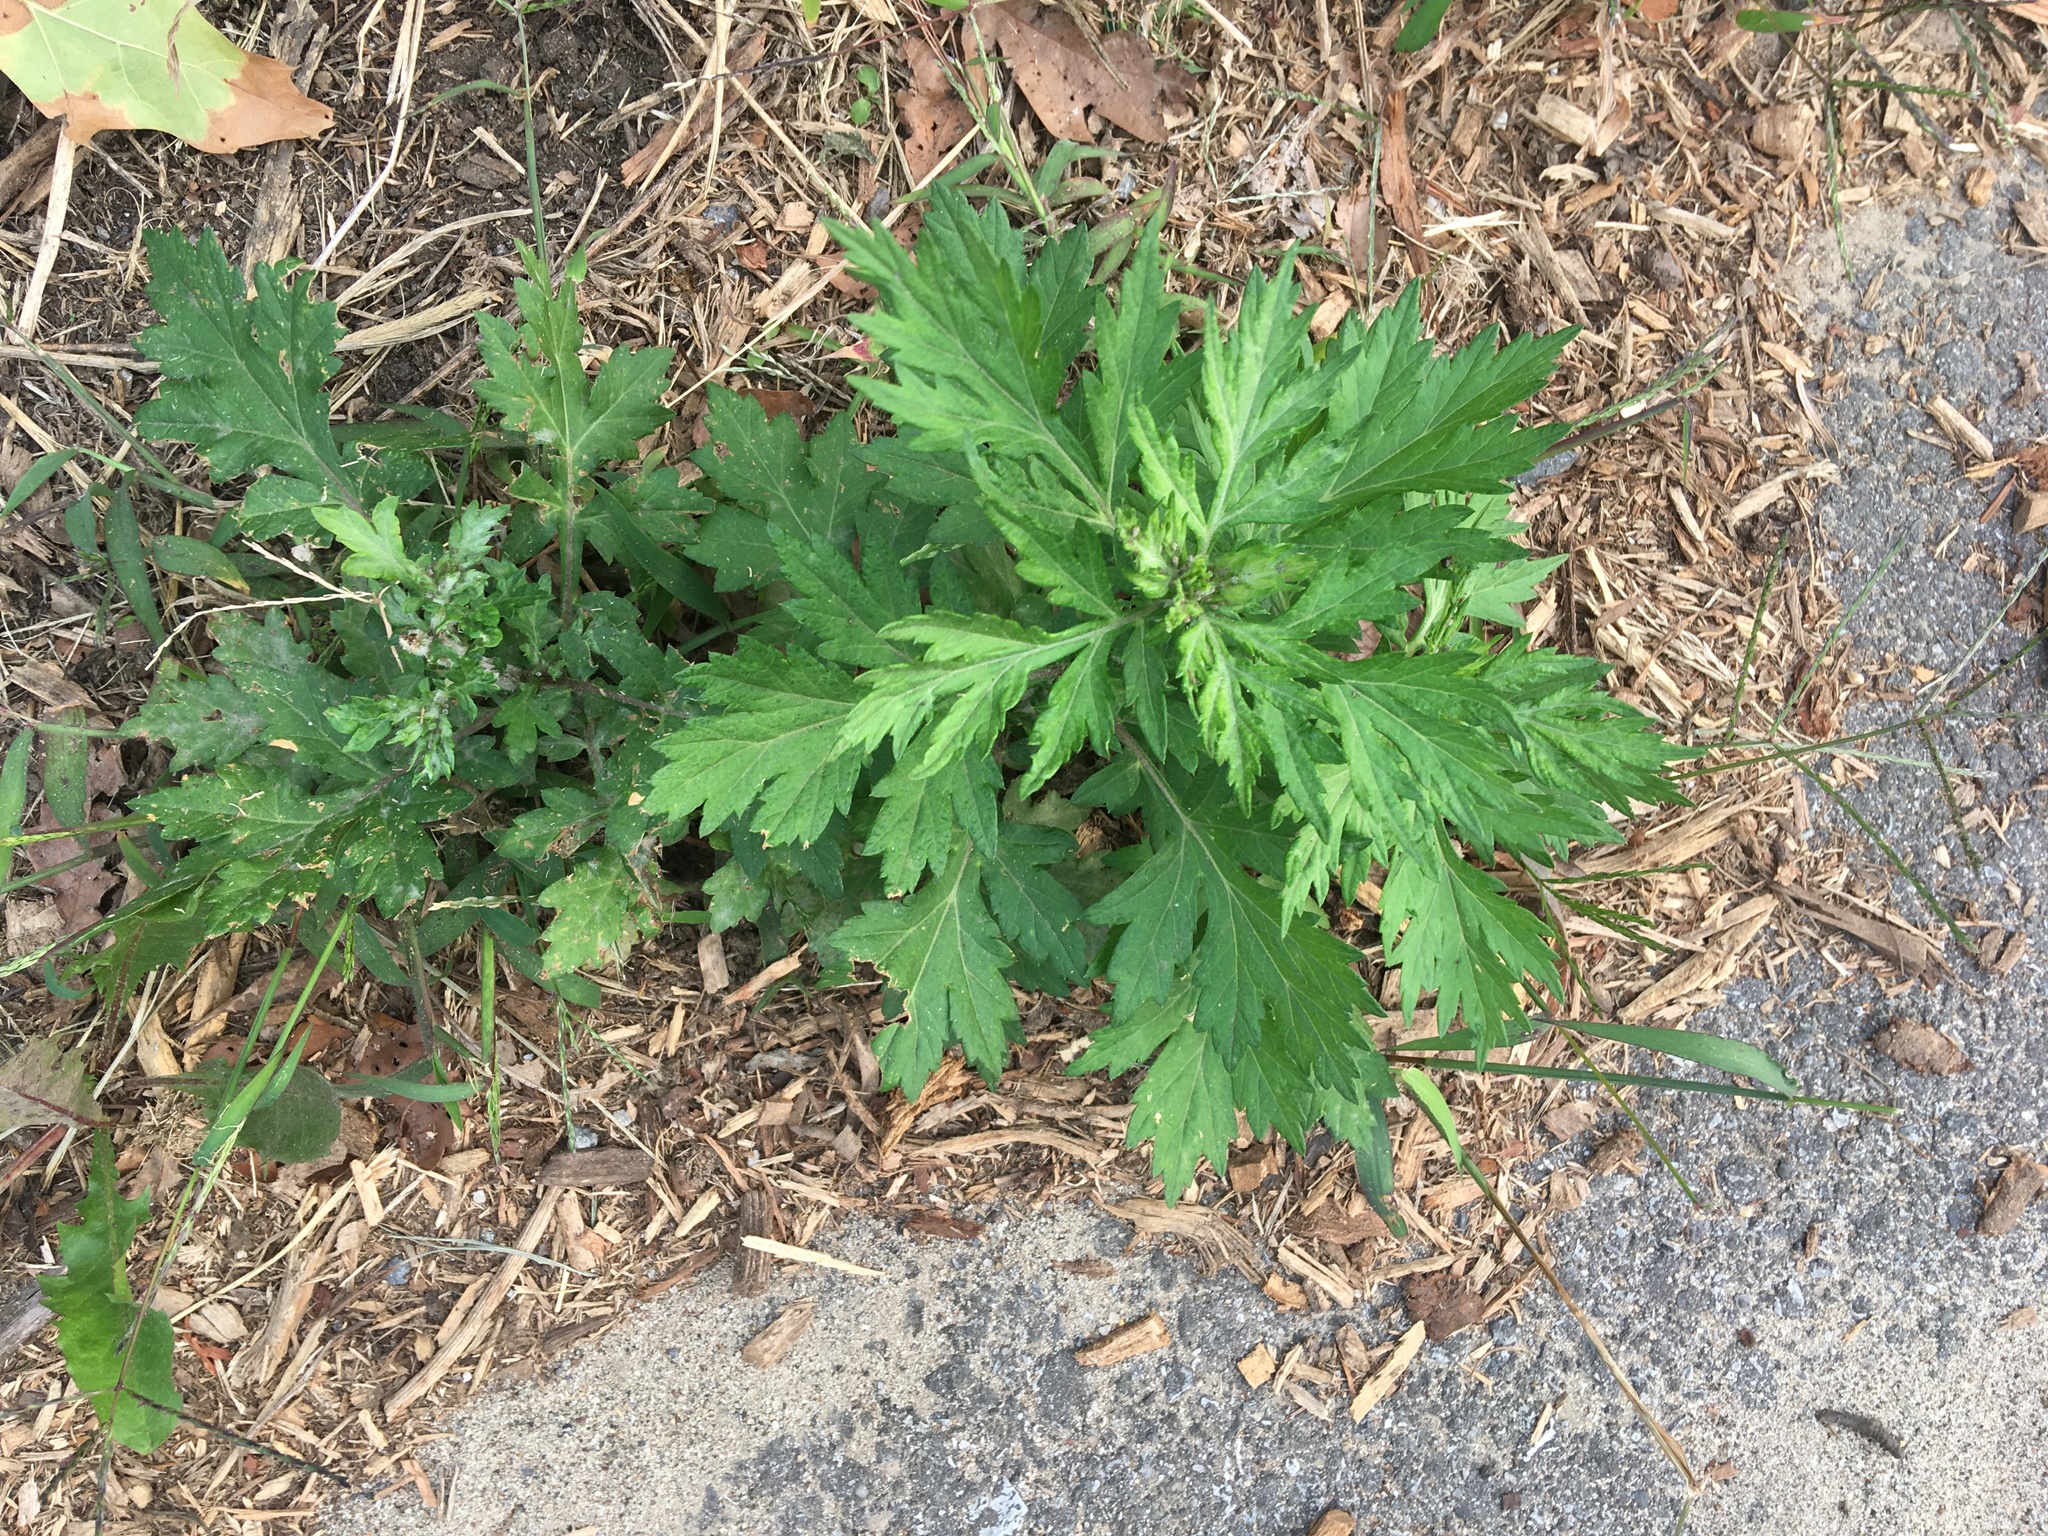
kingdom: Plantae
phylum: Tracheophyta
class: Magnoliopsida
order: Asterales
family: Asteraceae
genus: Artemisia
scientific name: Artemisia vulgaris
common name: Mugwort
